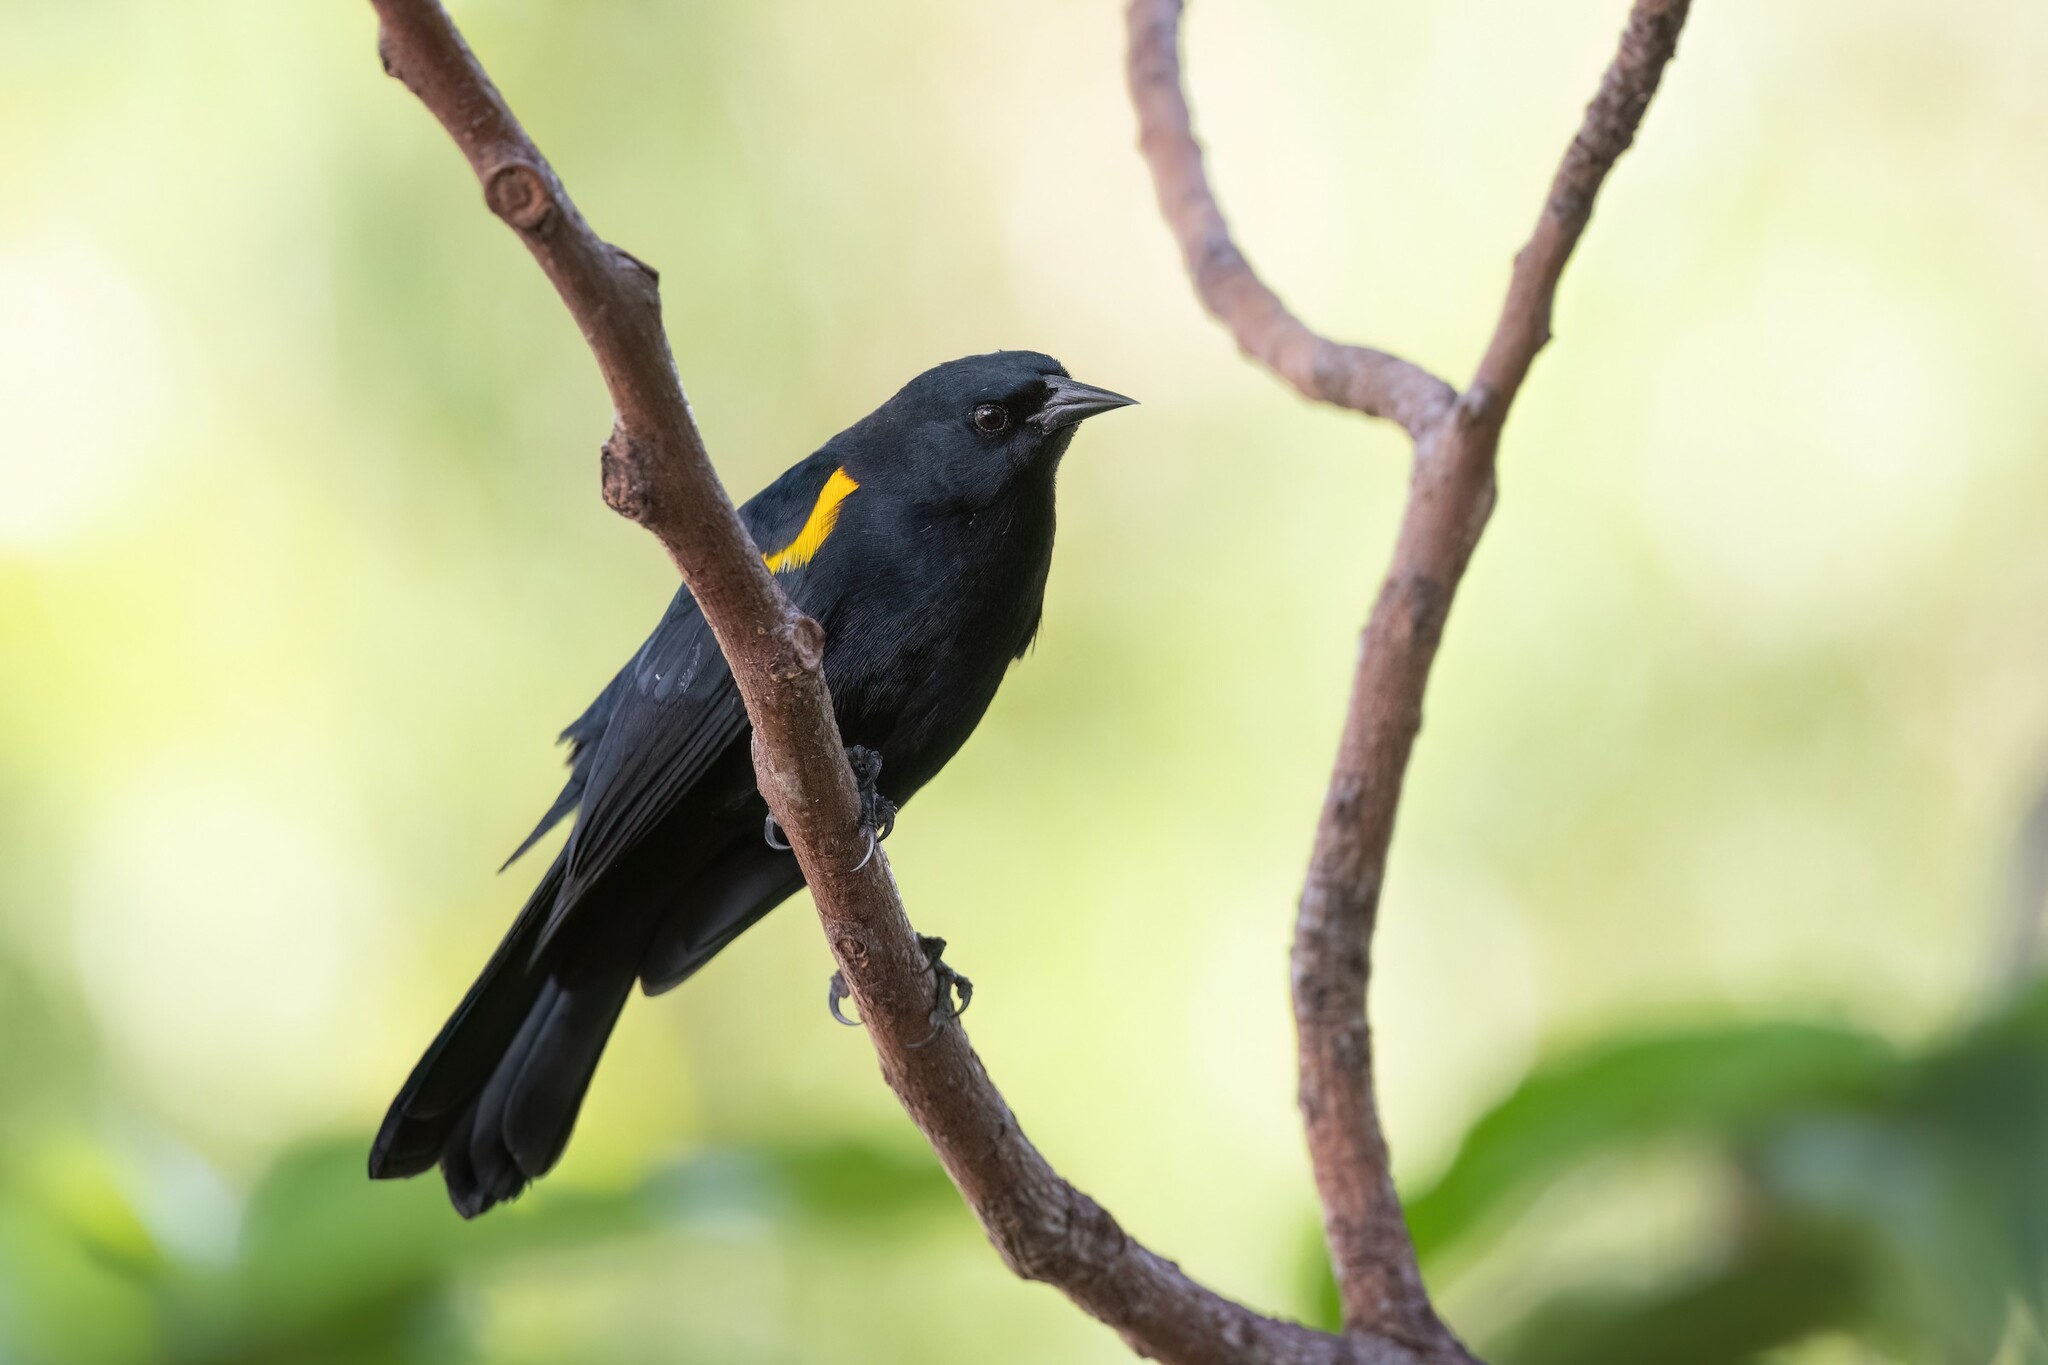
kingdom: Animalia
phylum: Chordata
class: Aves
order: Passeriformes
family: Icteridae
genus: Agelaius
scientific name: Agelaius xanthomus
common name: Yellow-shouldered blackbird
